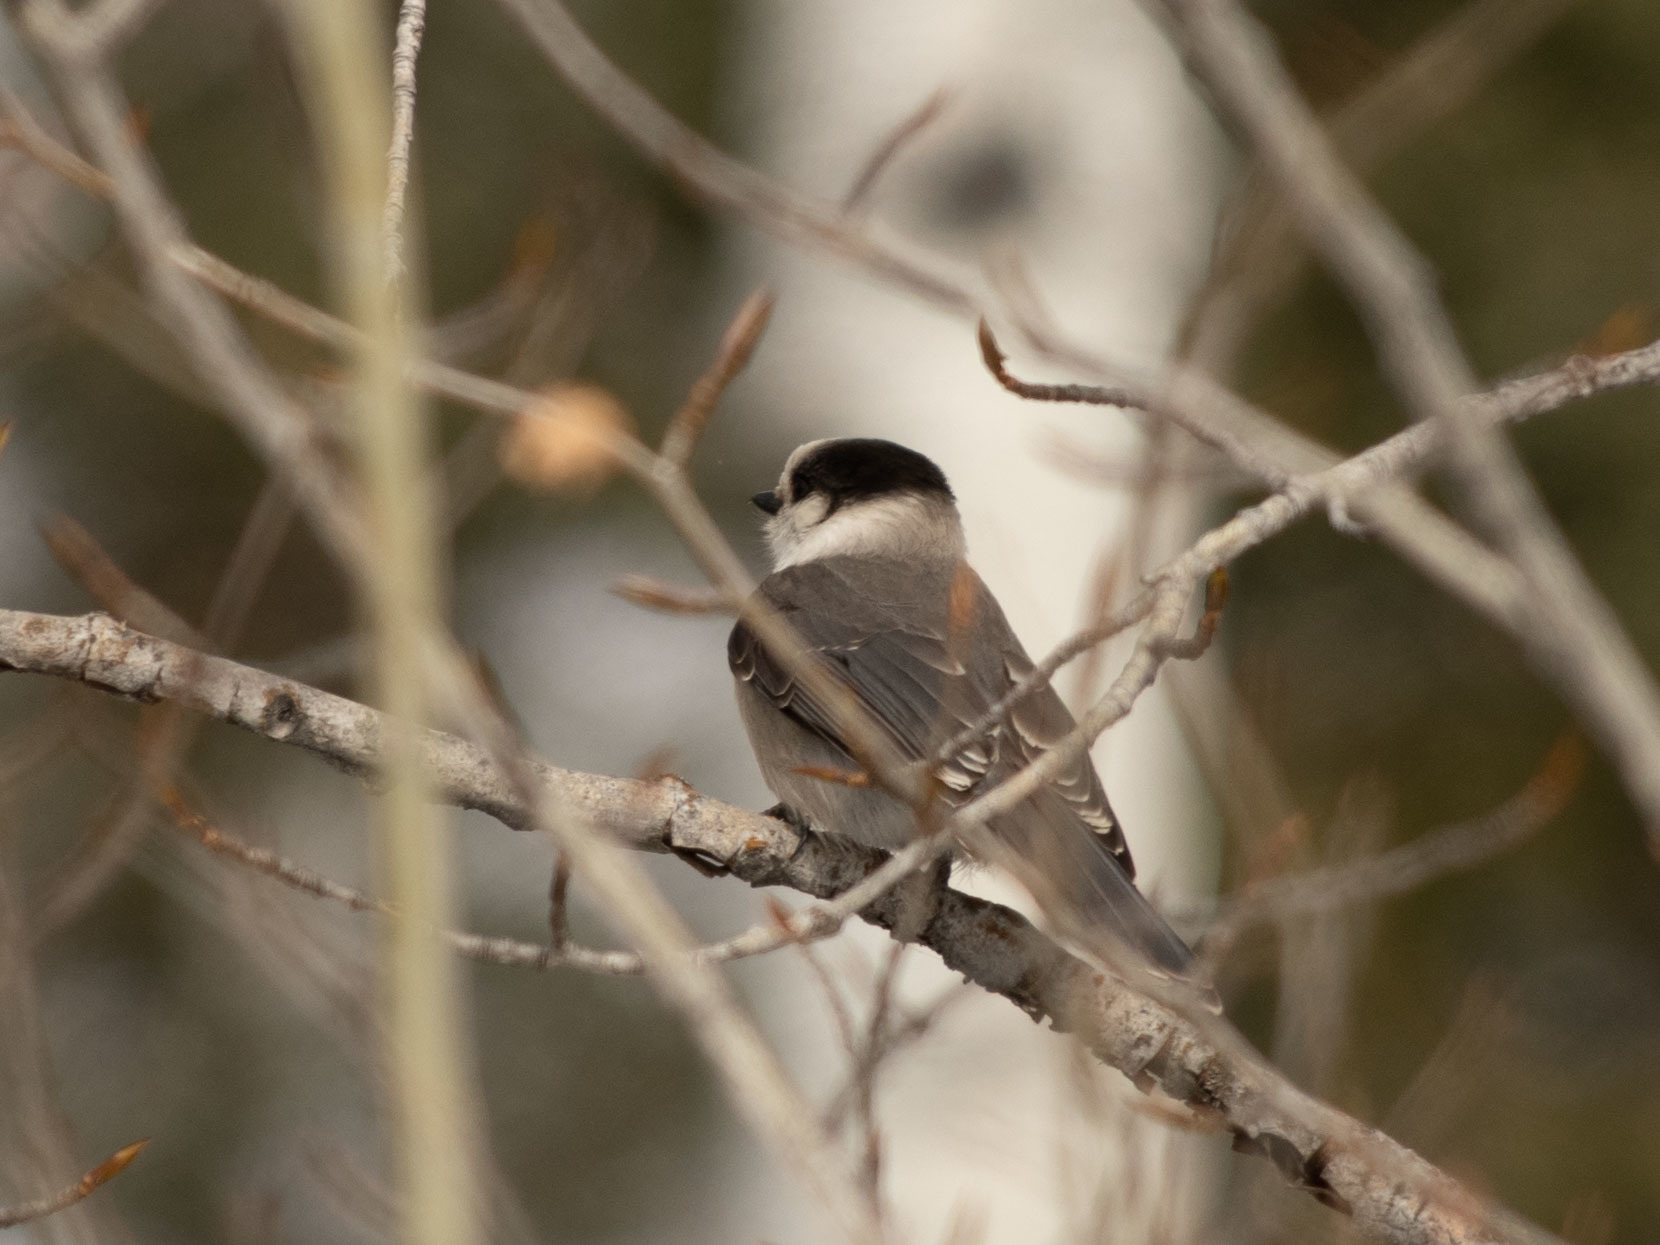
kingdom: Animalia
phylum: Chordata
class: Aves
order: Passeriformes
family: Corvidae
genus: Perisoreus
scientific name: Perisoreus canadensis
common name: Gray jay
